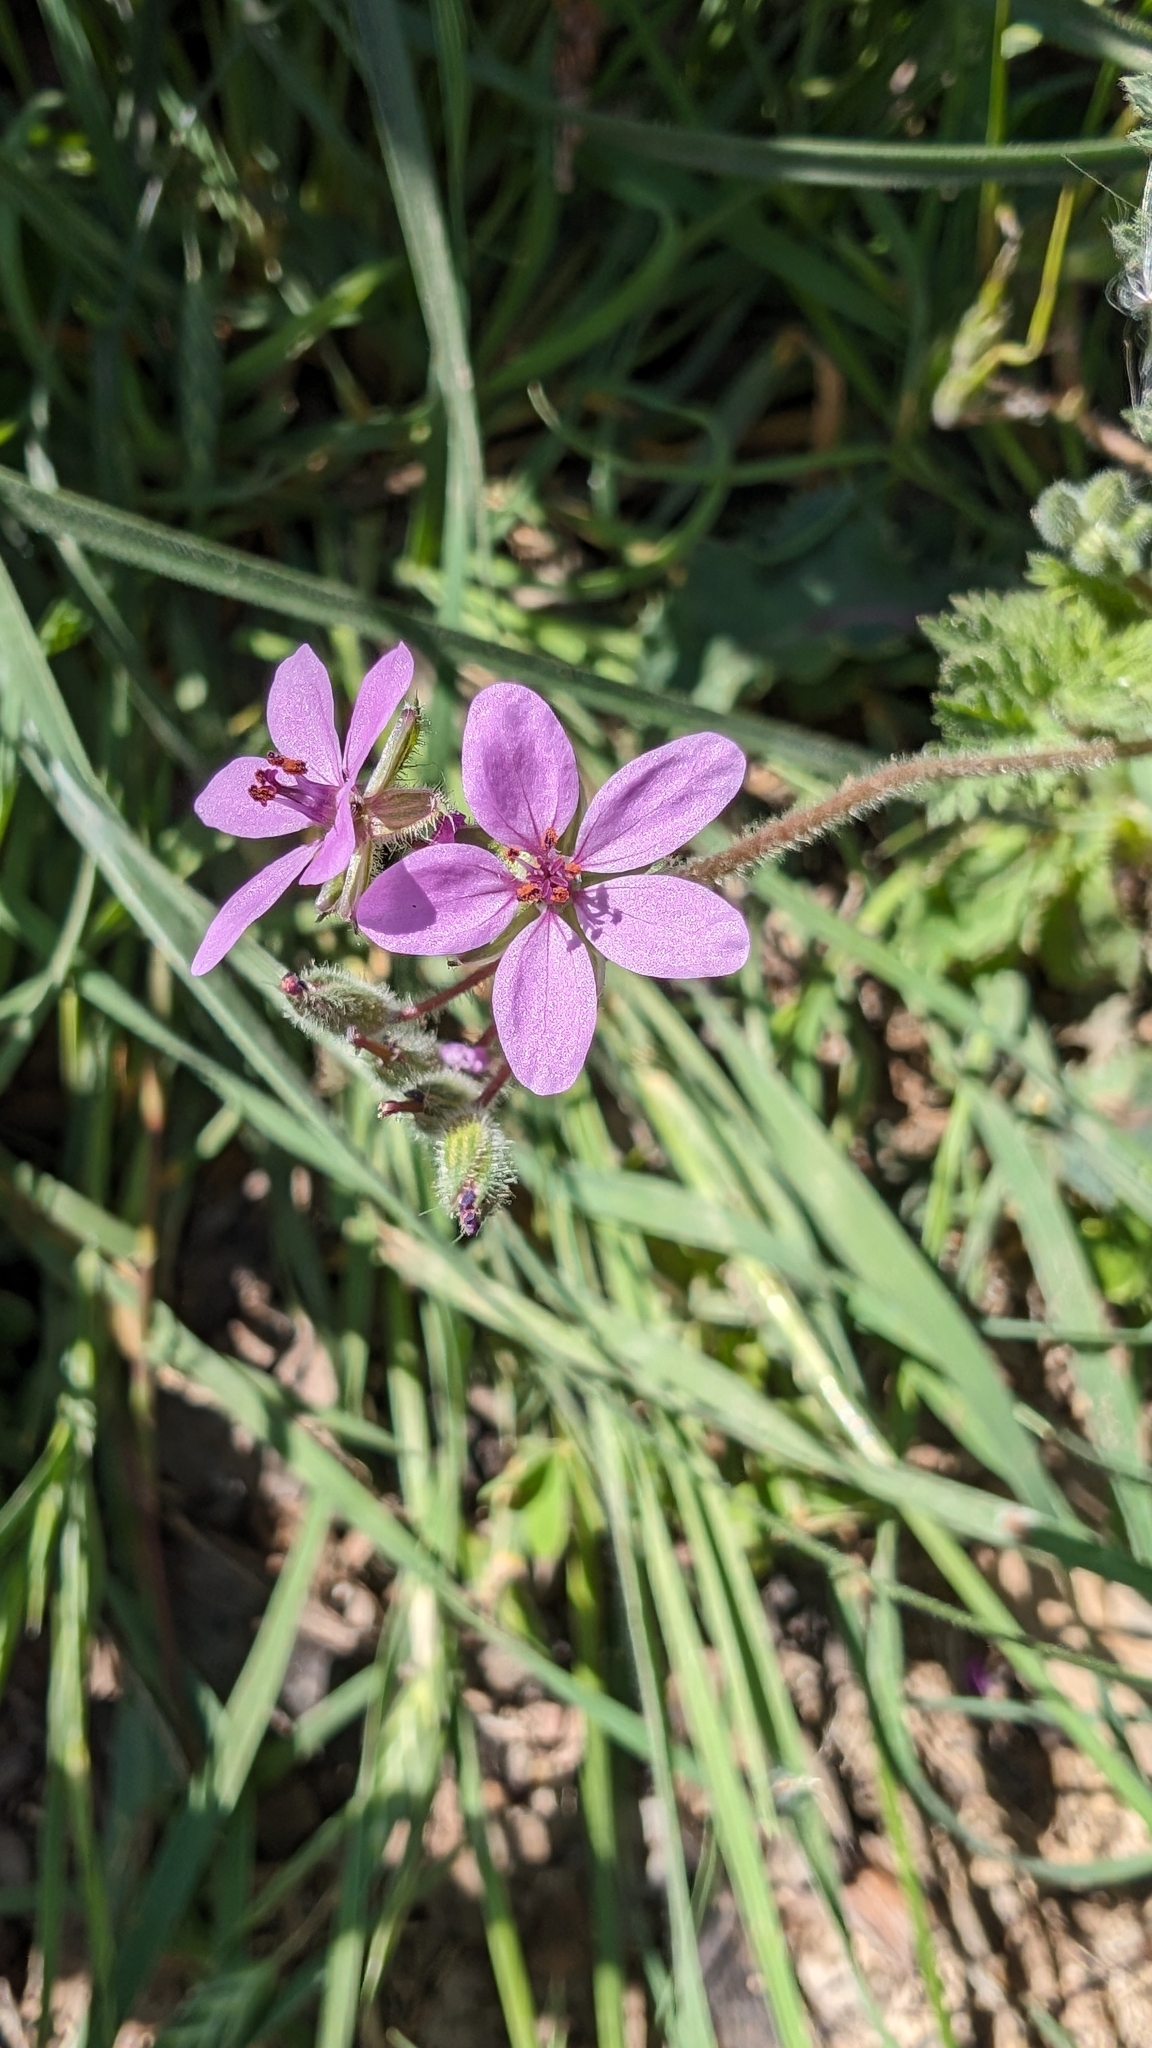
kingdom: Plantae
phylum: Tracheophyta
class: Magnoliopsida
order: Geraniales
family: Geraniaceae
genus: Erodium
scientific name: Erodium cicutarium
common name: Common stork's-bill
